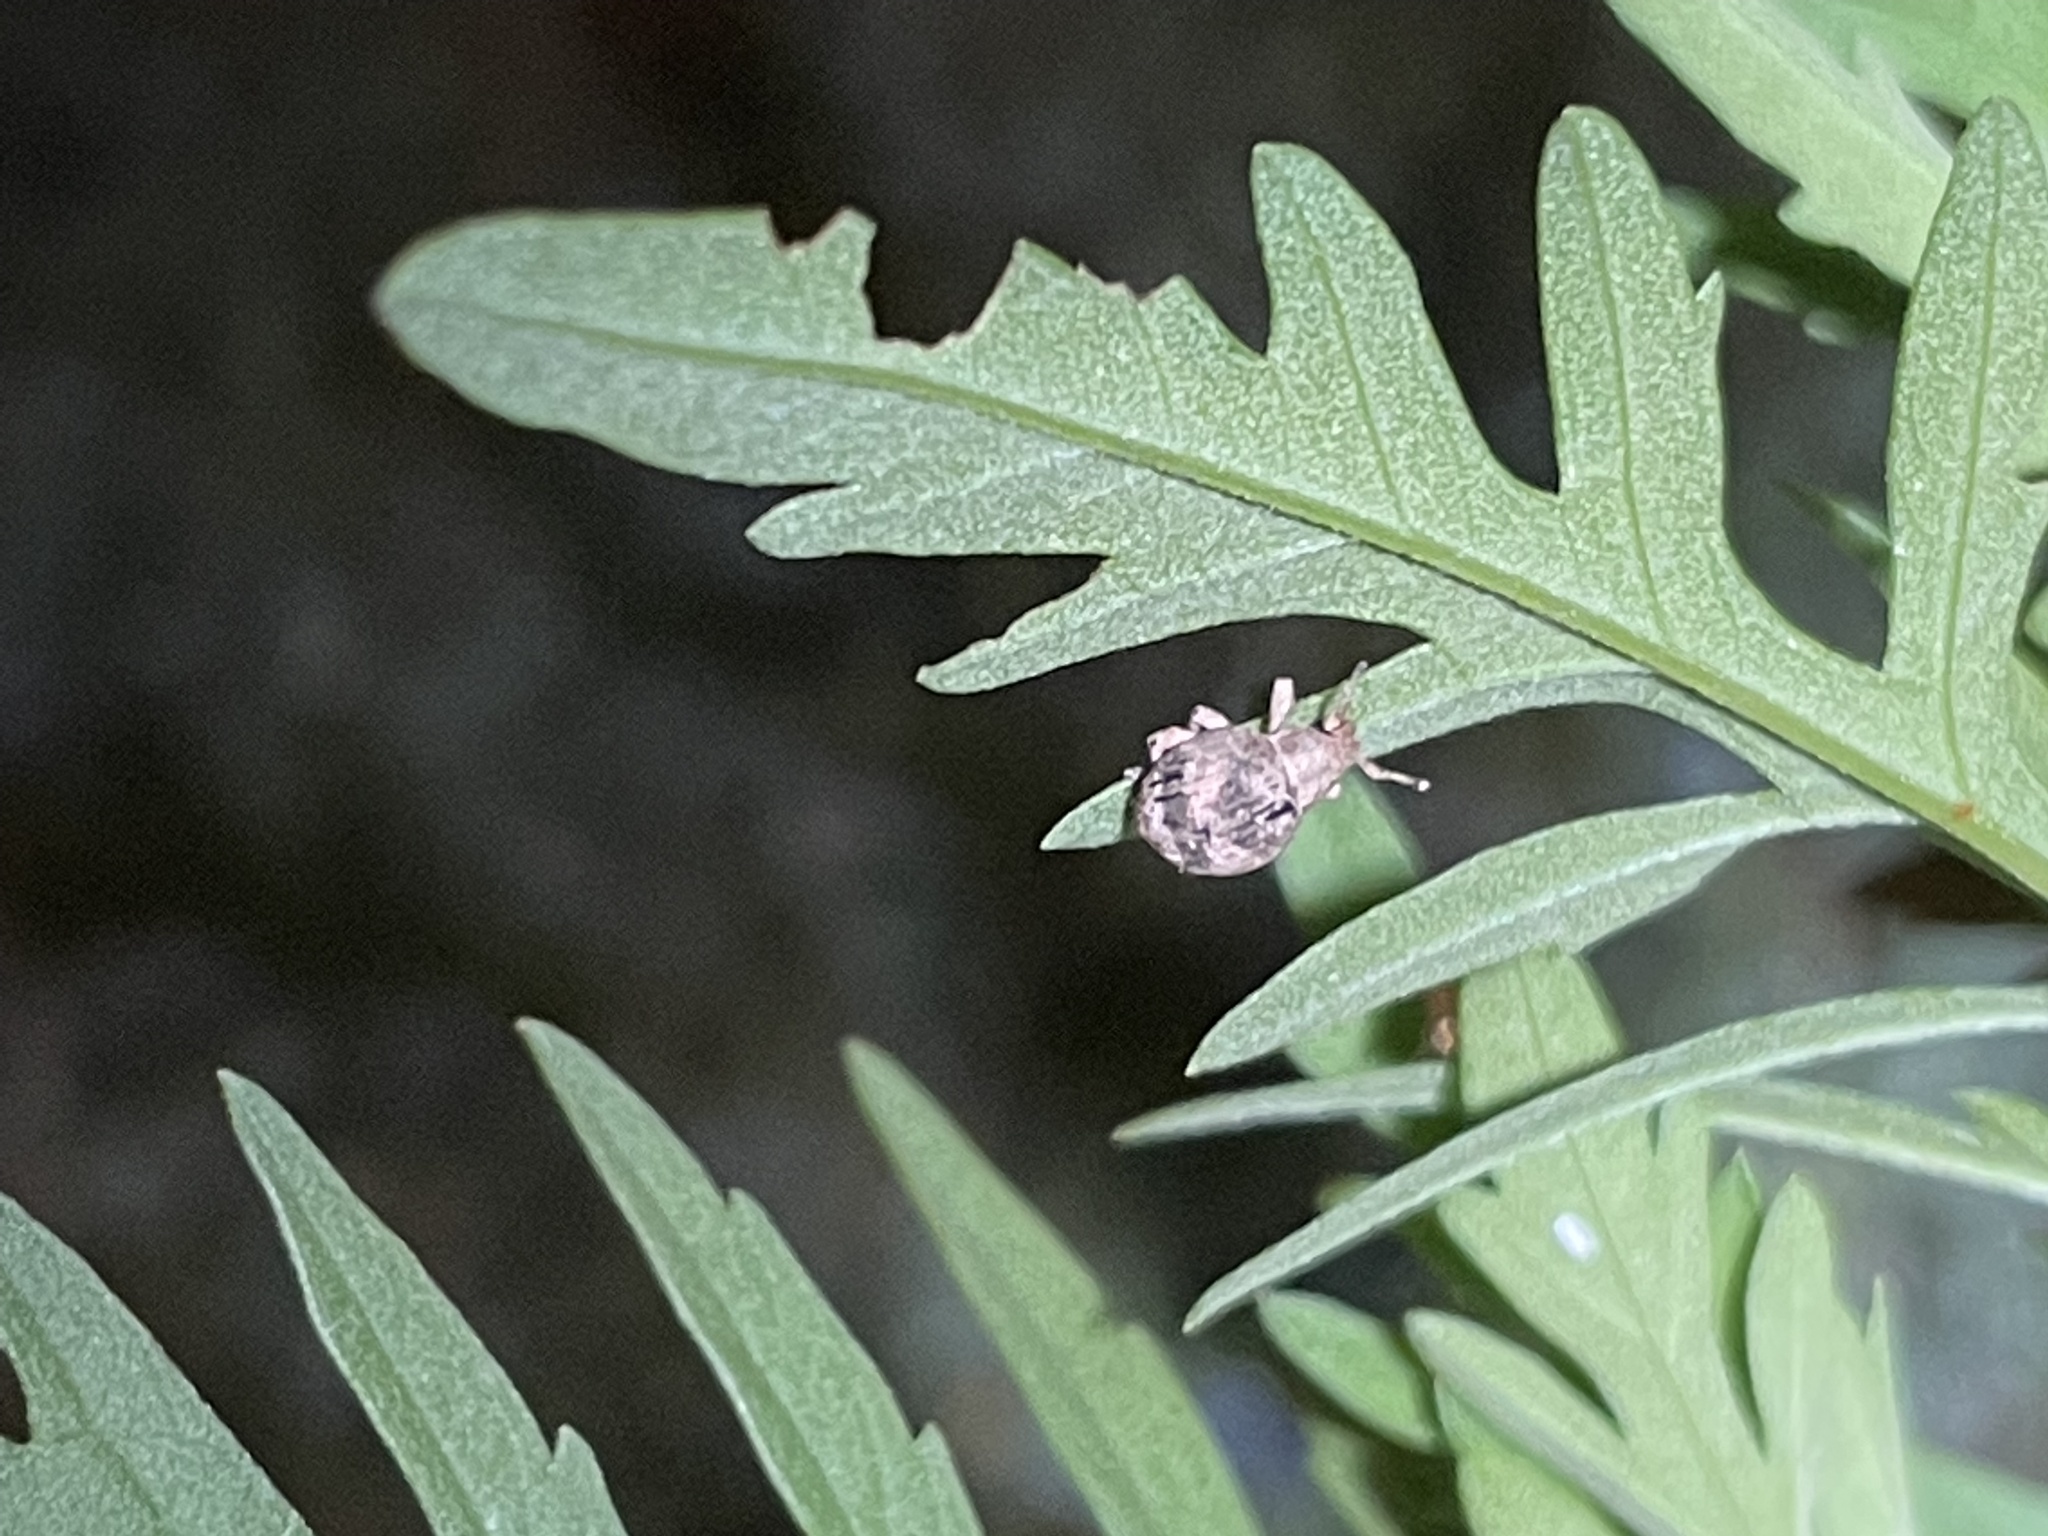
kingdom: Animalia
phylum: Arthropoda
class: Insecta
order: Coleoptera
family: Curculionidae
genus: Pseudocneorhinus
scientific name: Pseudocneorhinus bifasciatus
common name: Two-banded japanese weevil
